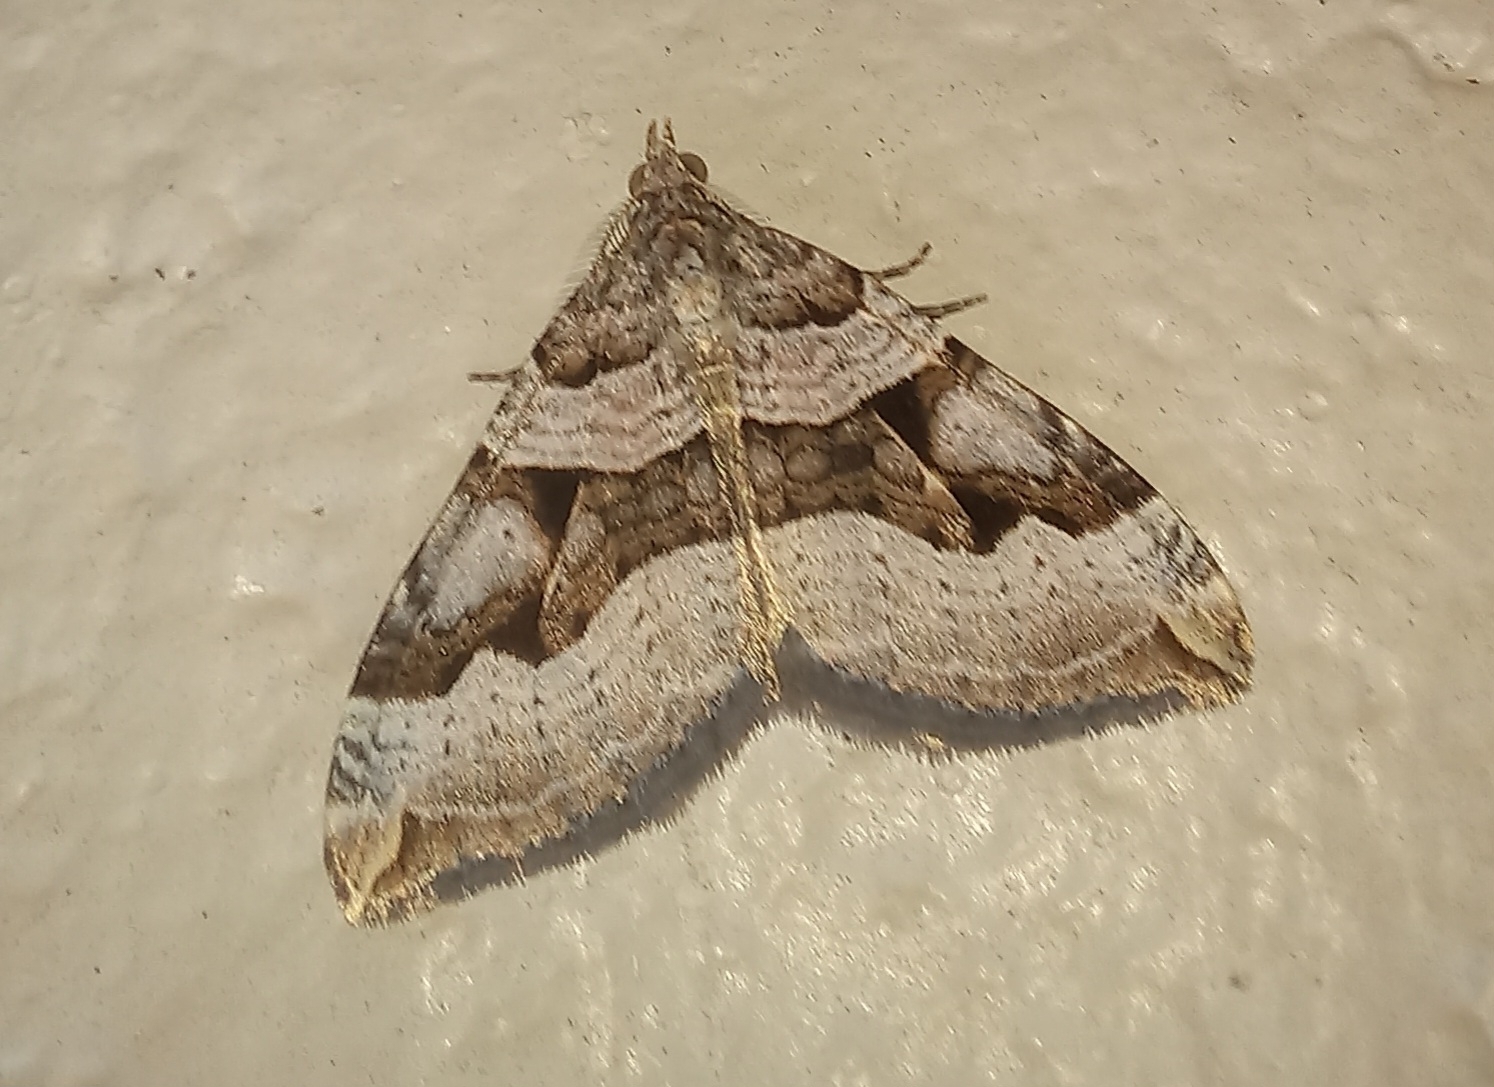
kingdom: Animalia
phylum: Arthropoda
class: Insecta
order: Lepidoptera
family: Geometridae
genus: Xanthorhoe
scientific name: Xanthorhoe semifissata
